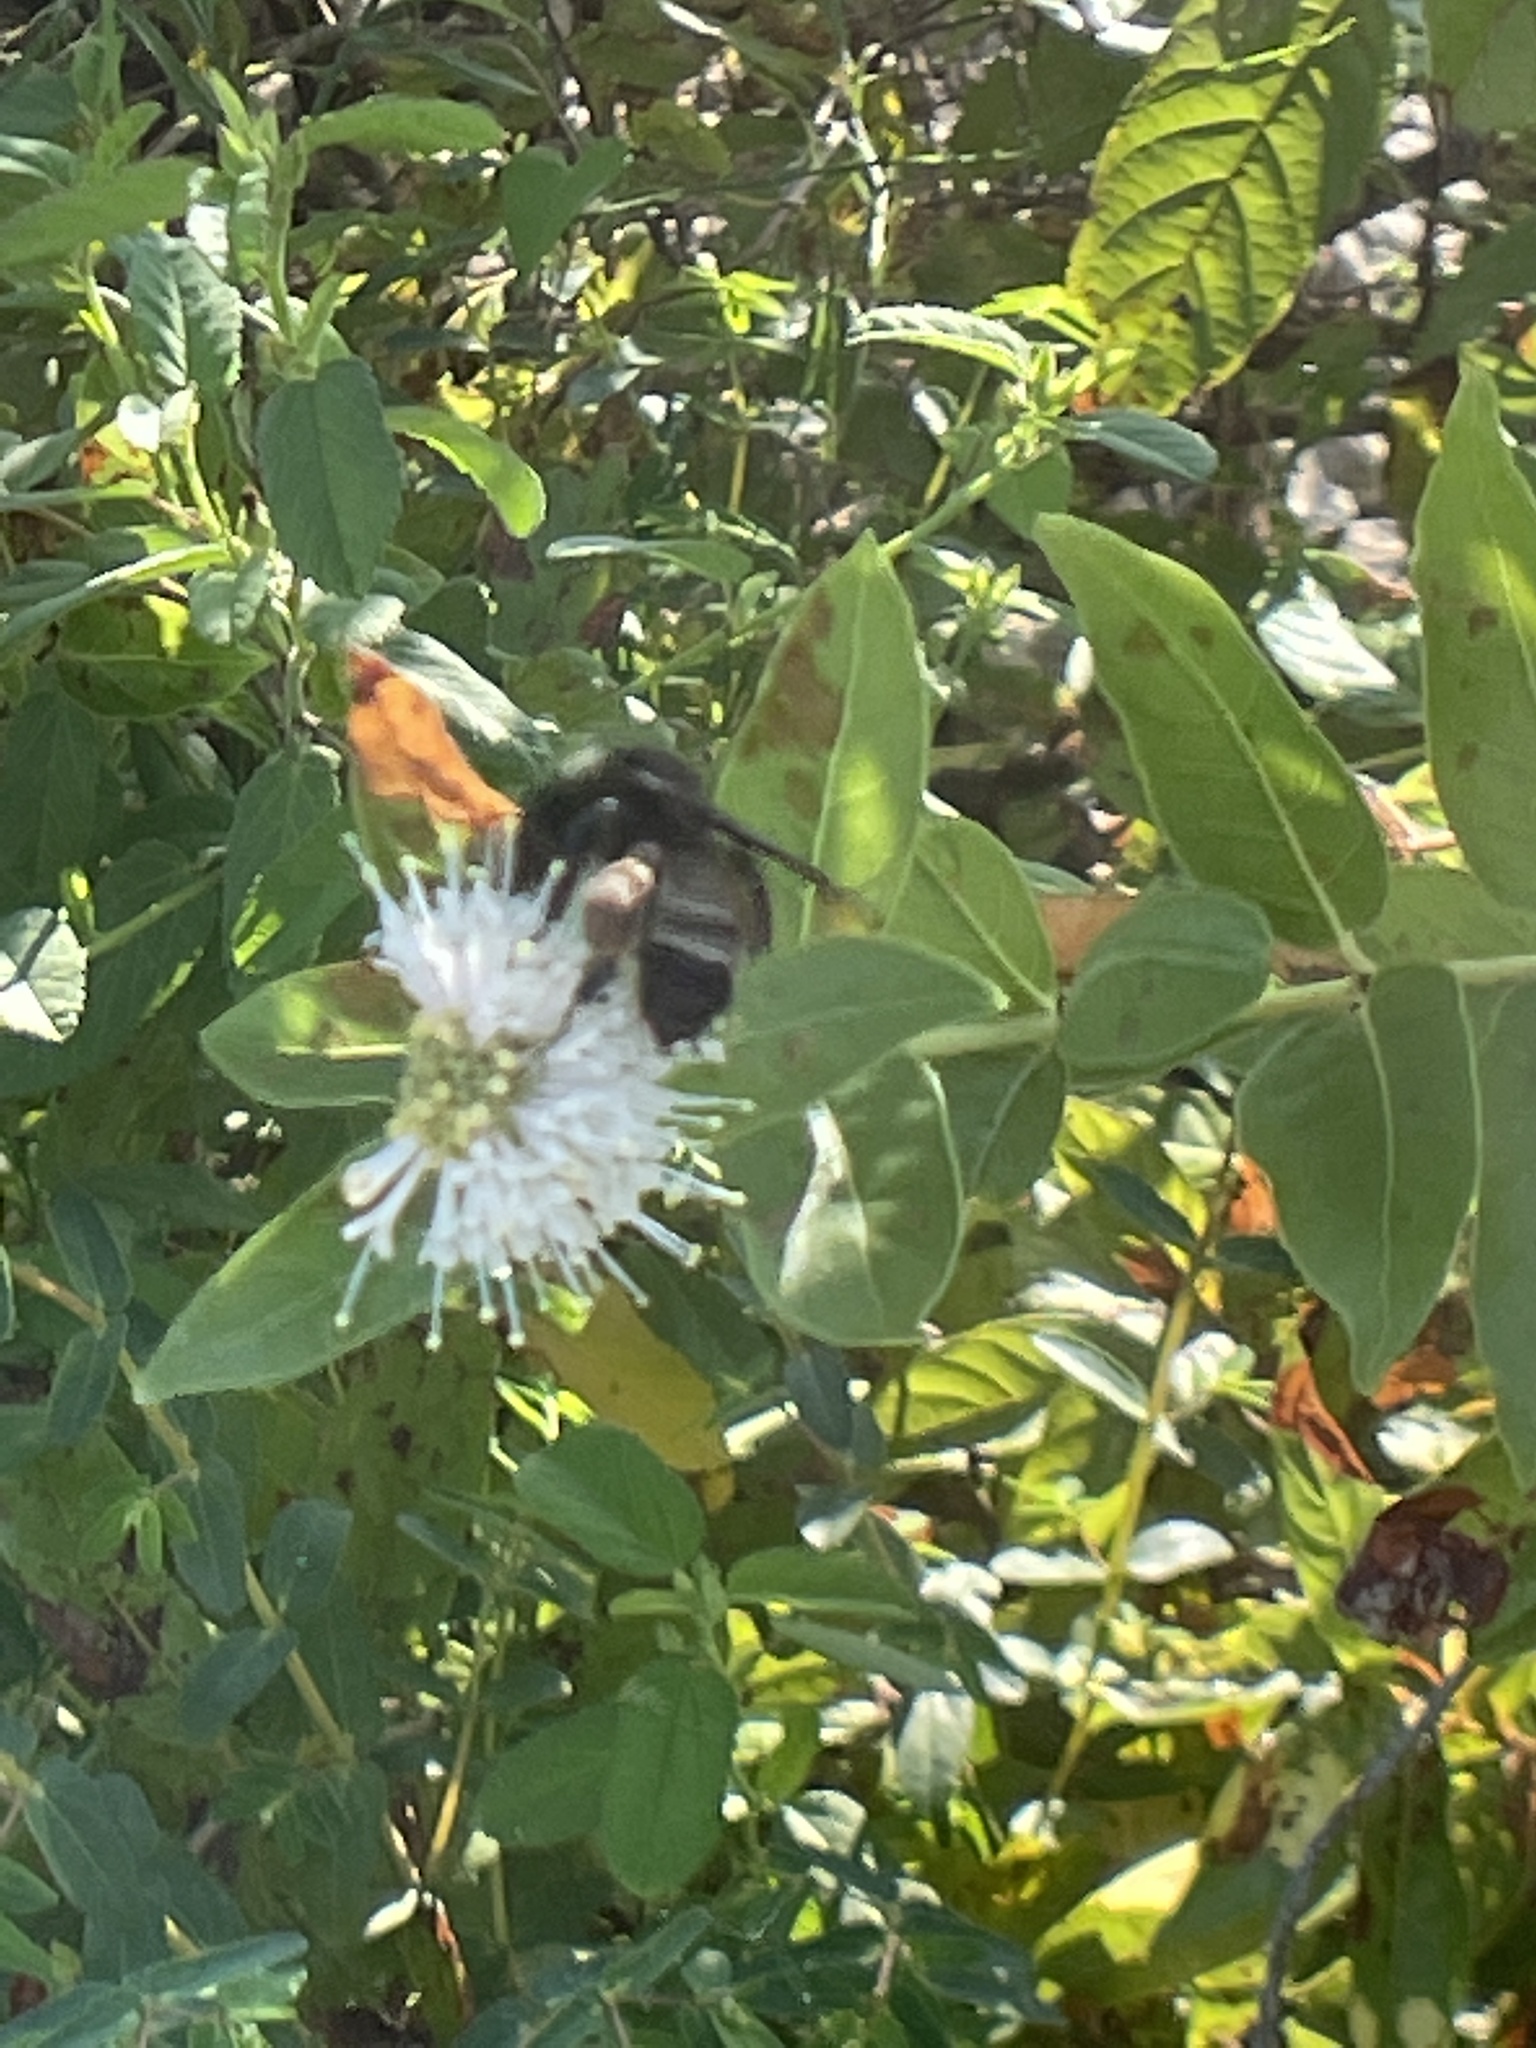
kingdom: Animalia
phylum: Arthropoda
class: Insecta
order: Hymenoptera
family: Apidae
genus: Bombus
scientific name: Bombus pensylvanicus
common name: Bumble bee
